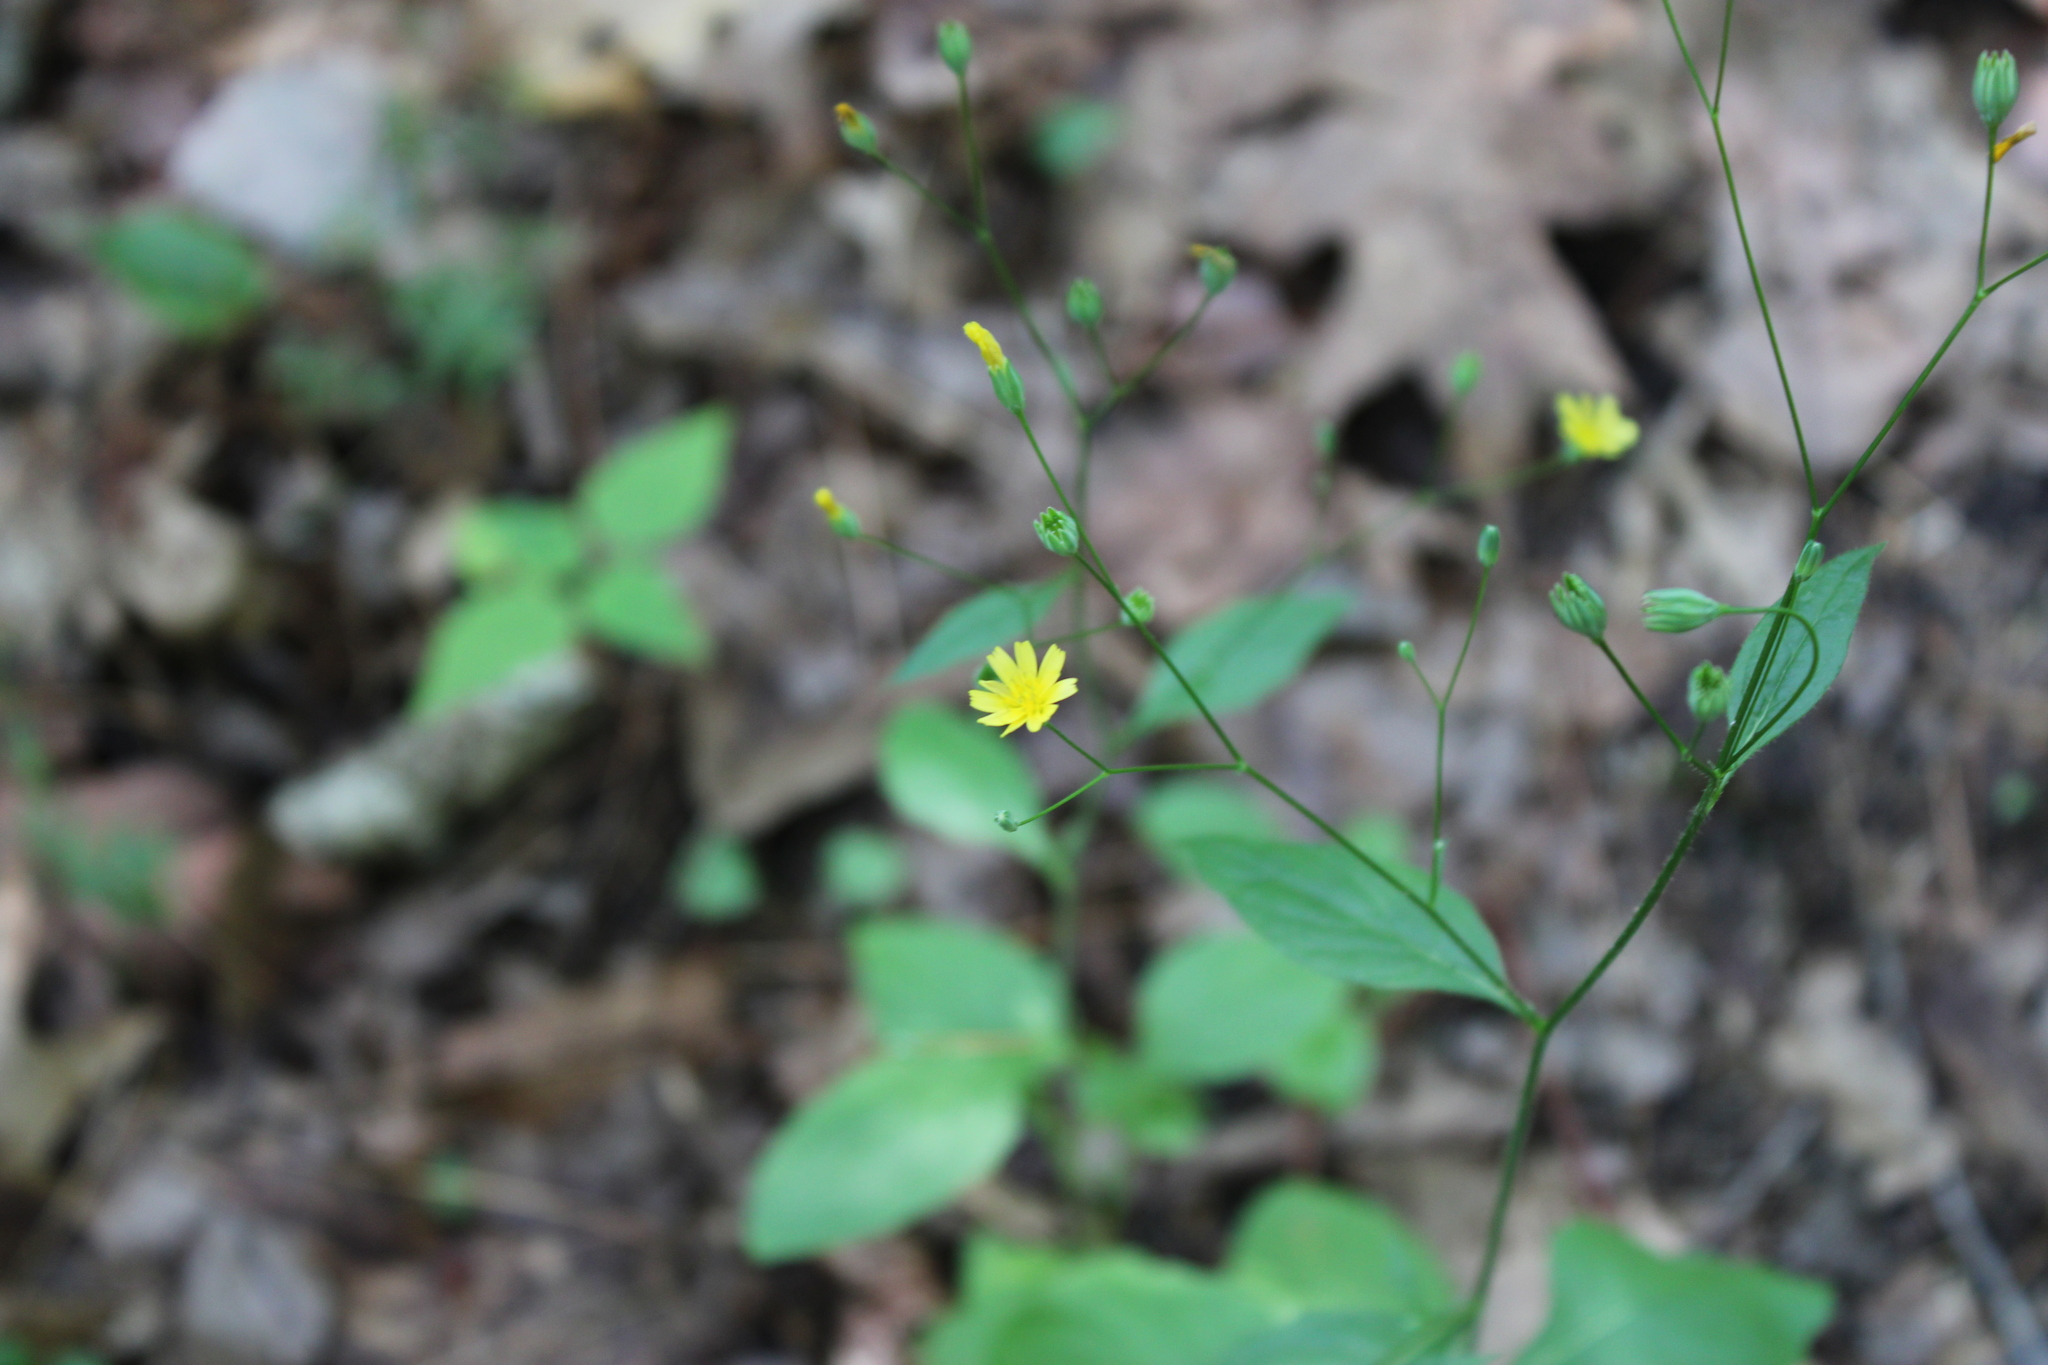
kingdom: Plantae
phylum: Tracheophyta
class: Magnoliopsida
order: Asterales
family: Asteraceae
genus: Lapsana
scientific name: Lapsana communis
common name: Nipplewort
